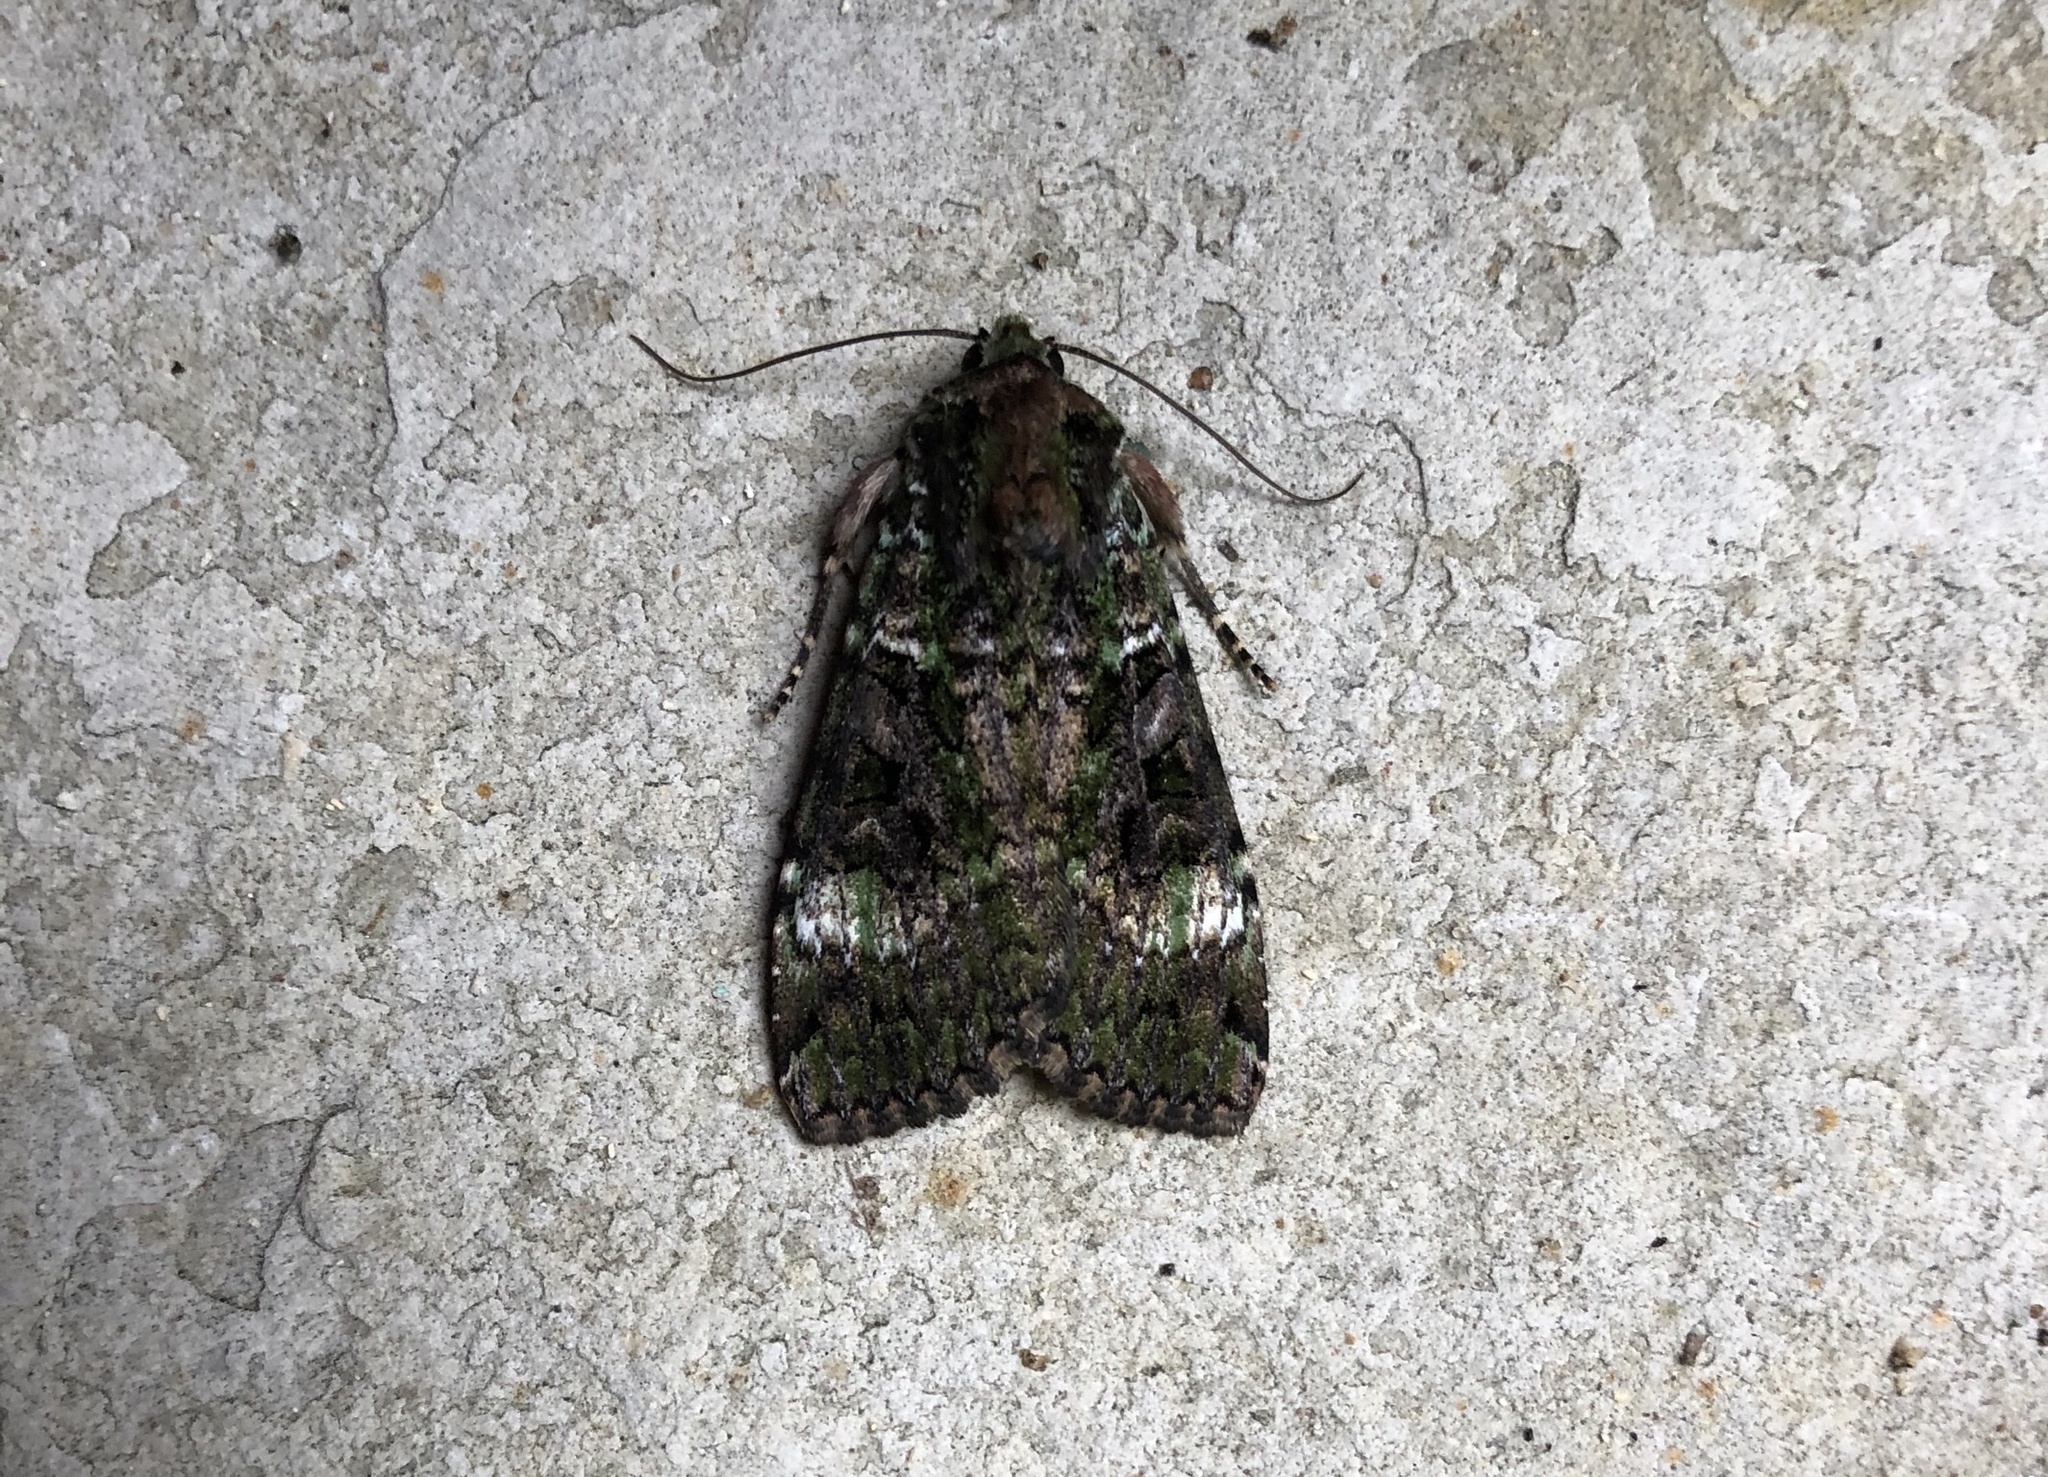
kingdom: Animalia
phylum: Arthropoda
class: Insecta
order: Lepidoptera
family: Noctuidae
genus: Anaplectoides
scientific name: Anaplectoides prasina
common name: Green arches
